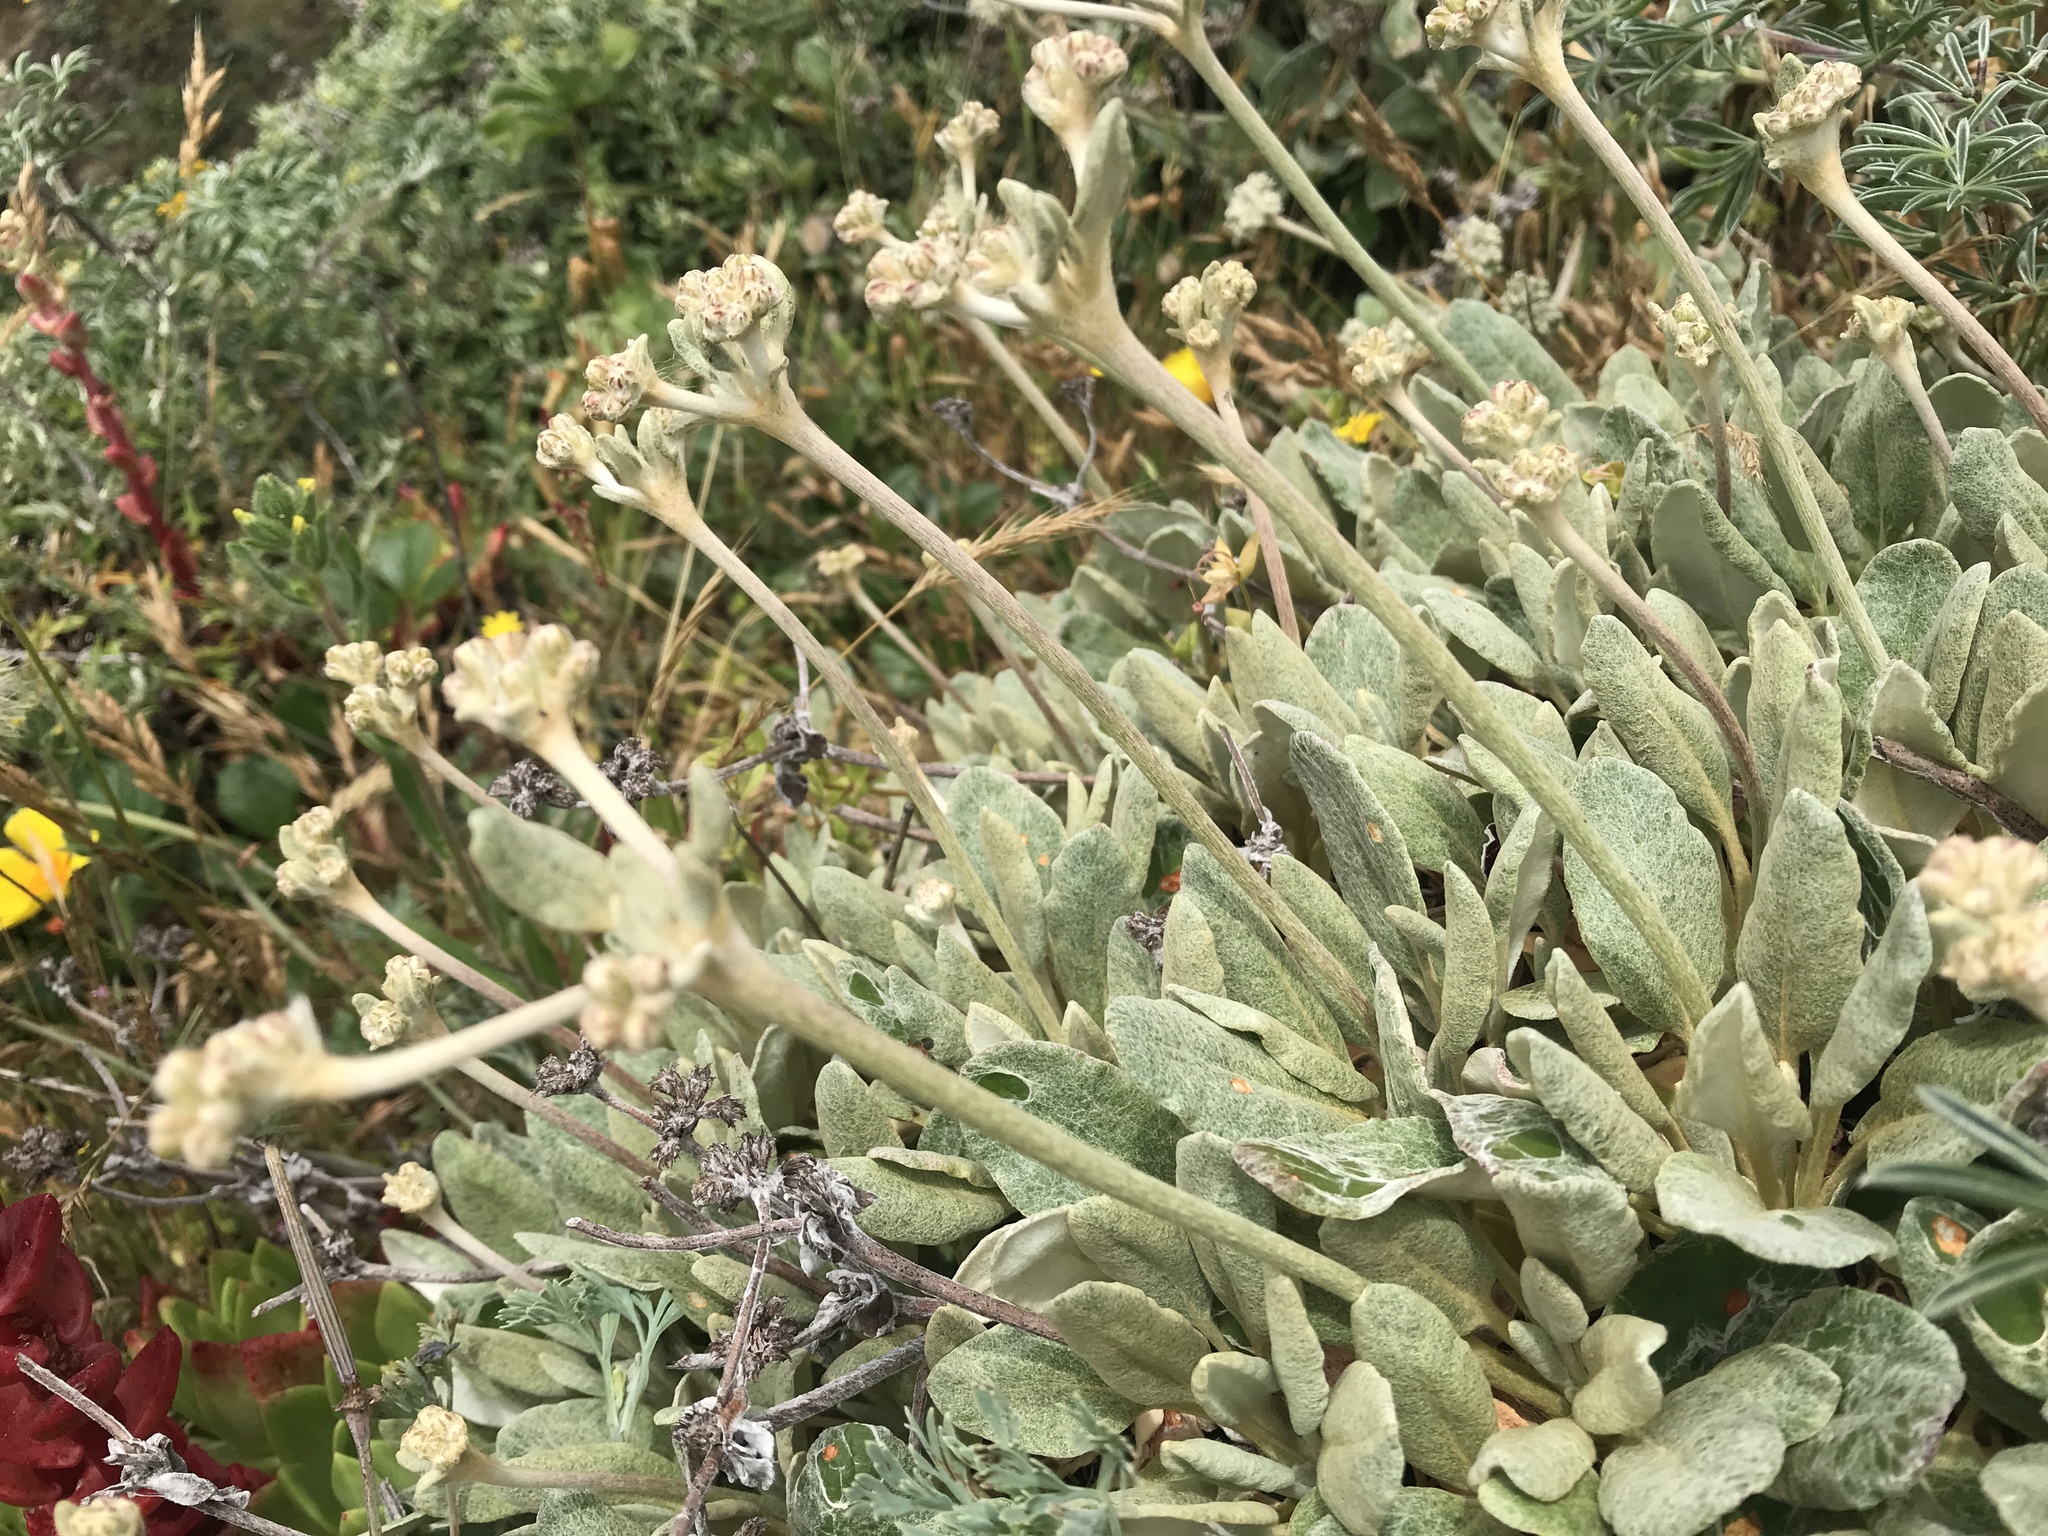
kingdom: Plantae
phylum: Tracheophyta
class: Magnoliopsida
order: Caryophyllales
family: Polygonaceae
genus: Eriogonum
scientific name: Eriogonum latifolium
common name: Seaside wild buckwheat
